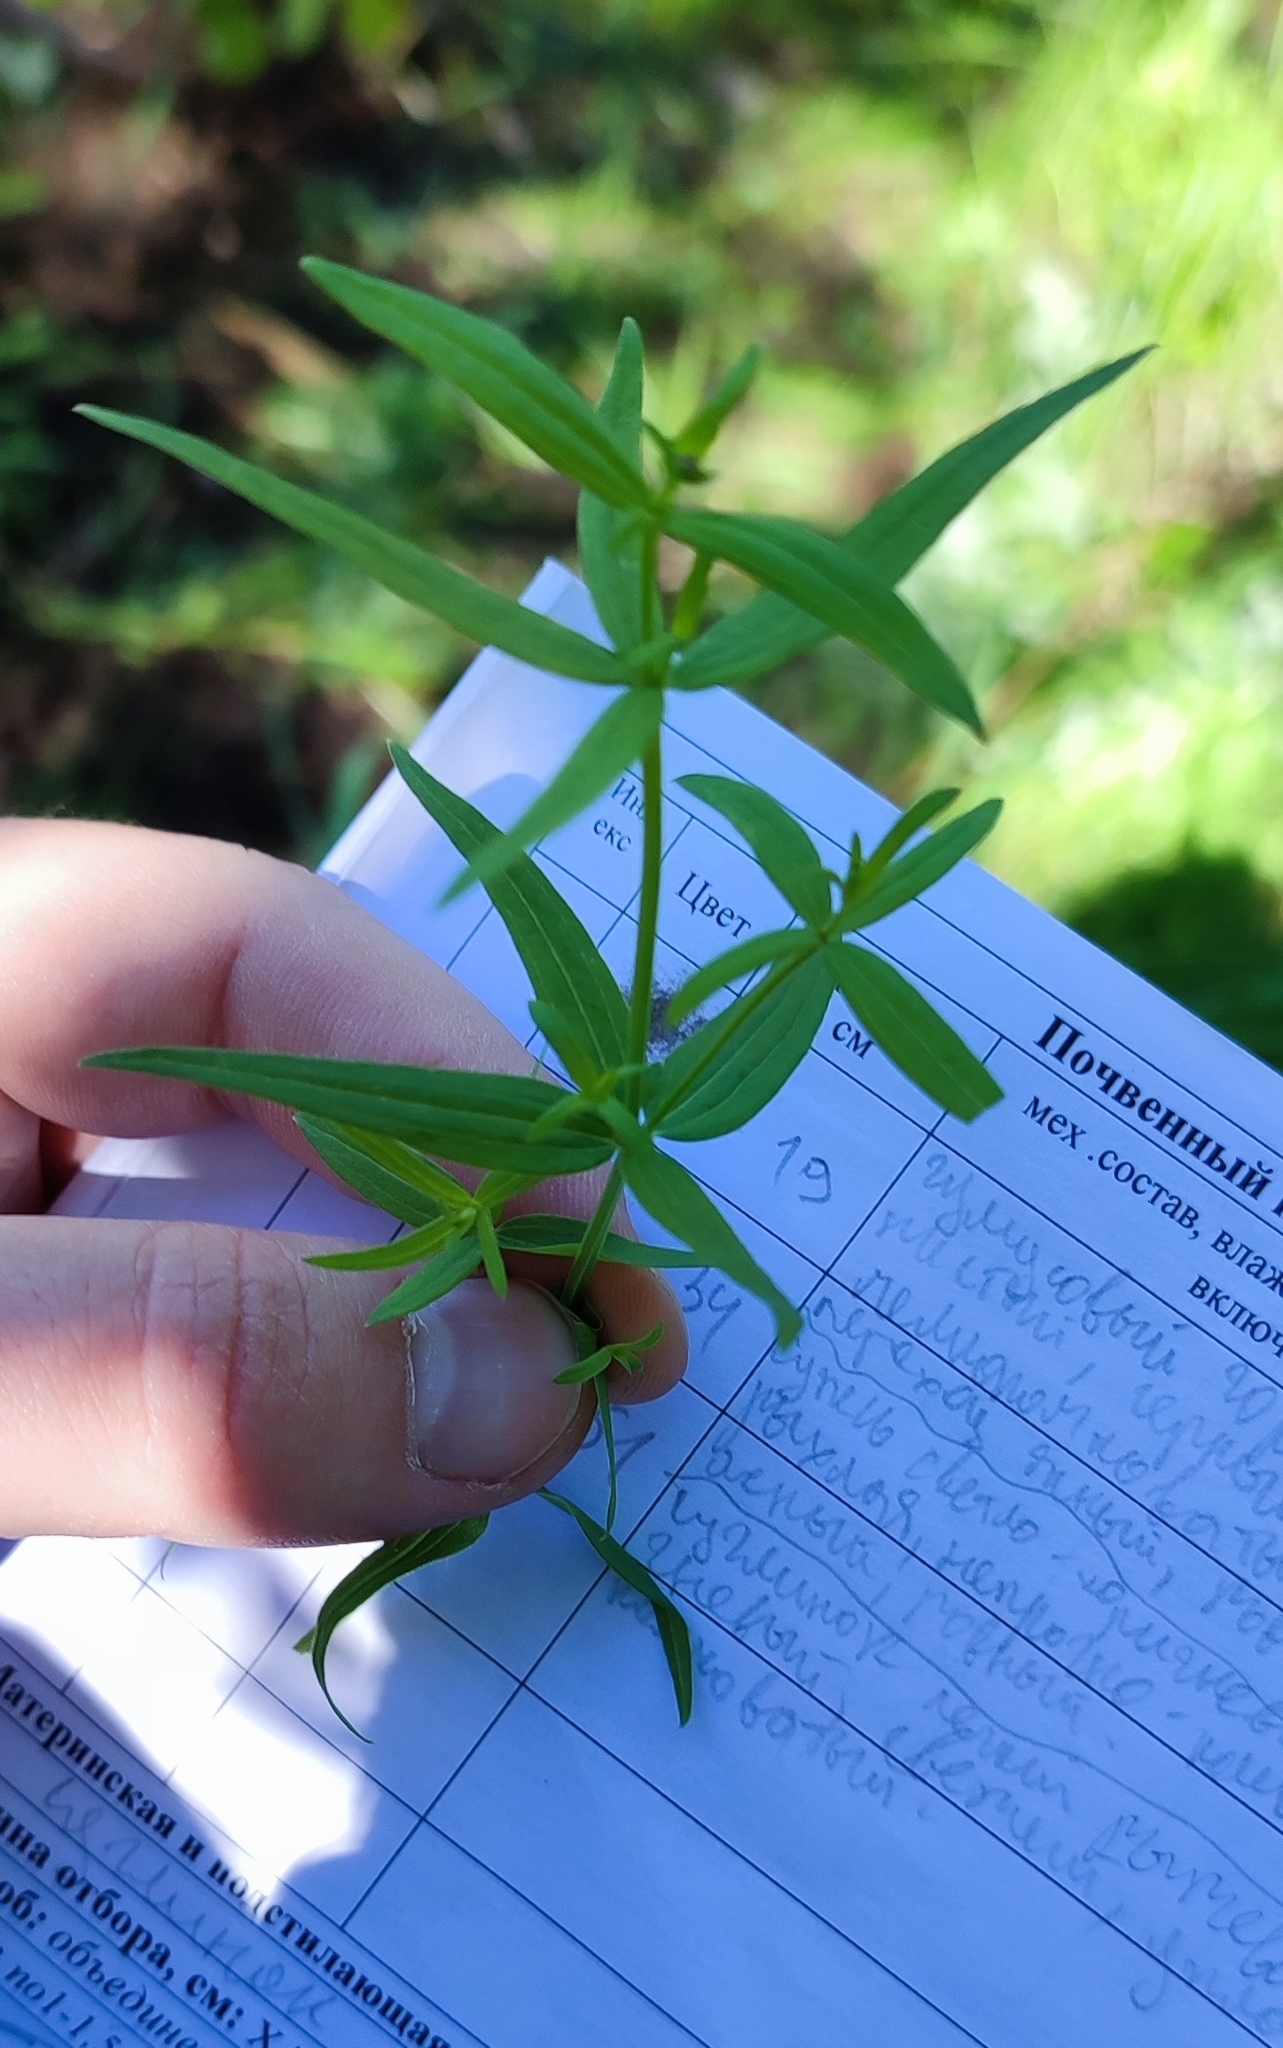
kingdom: Plantae
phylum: Tracheophyta
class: Magnoliopsida
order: Gentianales
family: Rubiaceae
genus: Galium
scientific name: Galium boreale
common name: Northern bedstraw
